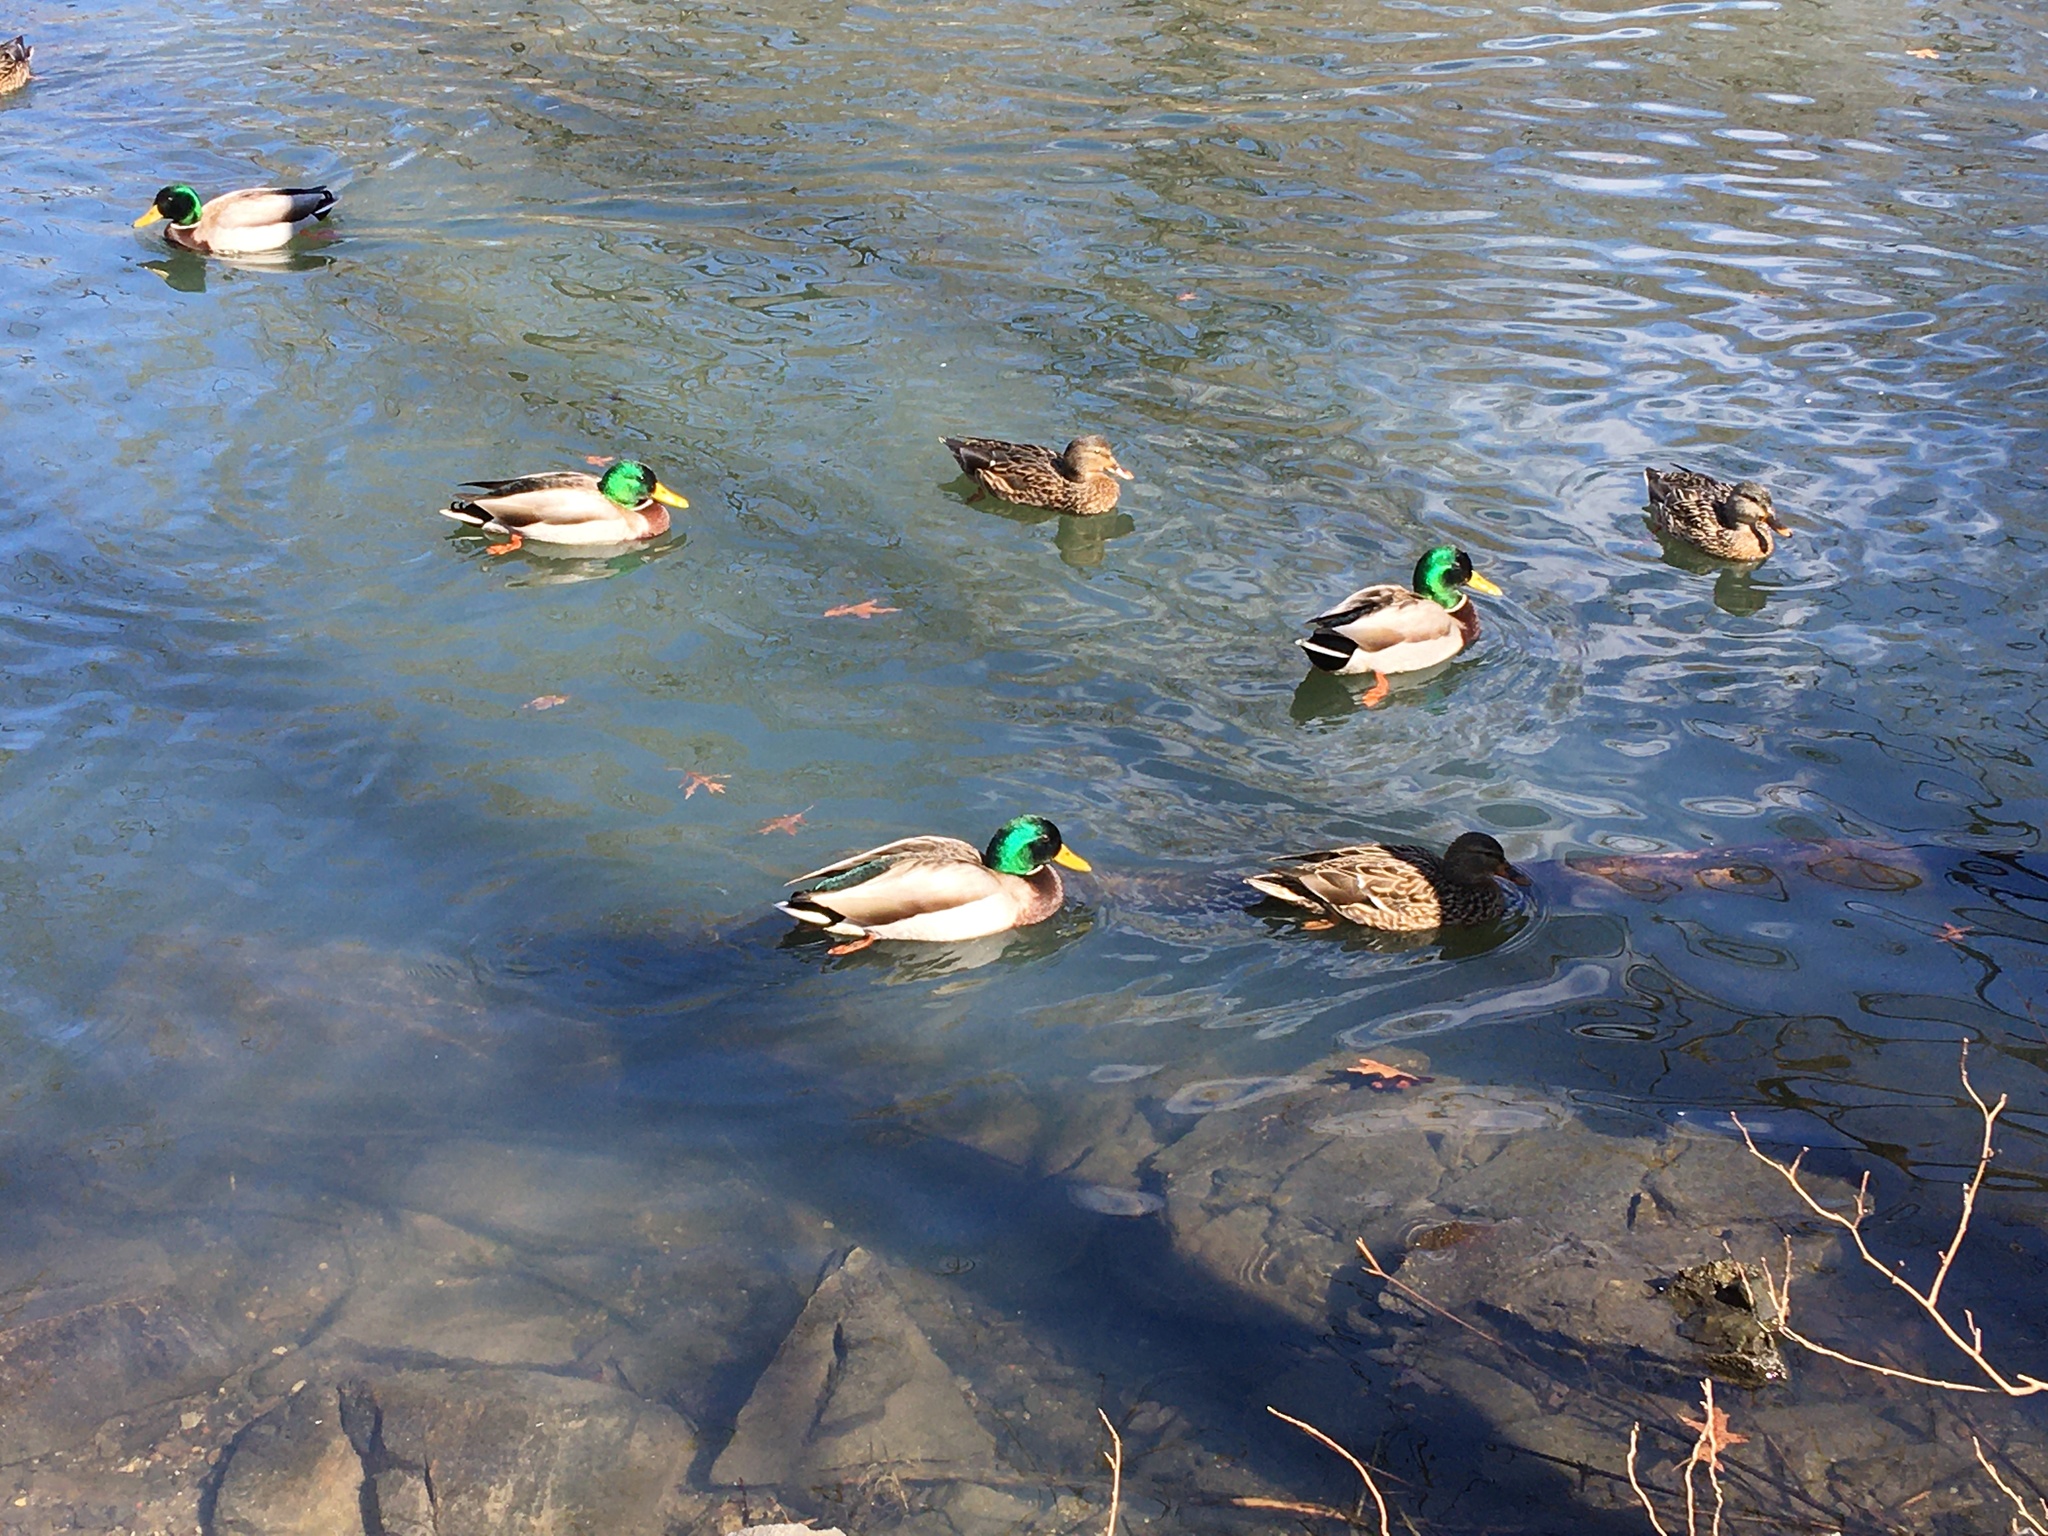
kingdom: Animalia
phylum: Chordata
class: Aves
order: Anseriformes
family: Anatidae
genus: Anas
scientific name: Anas platyrhynchos
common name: Mallard
